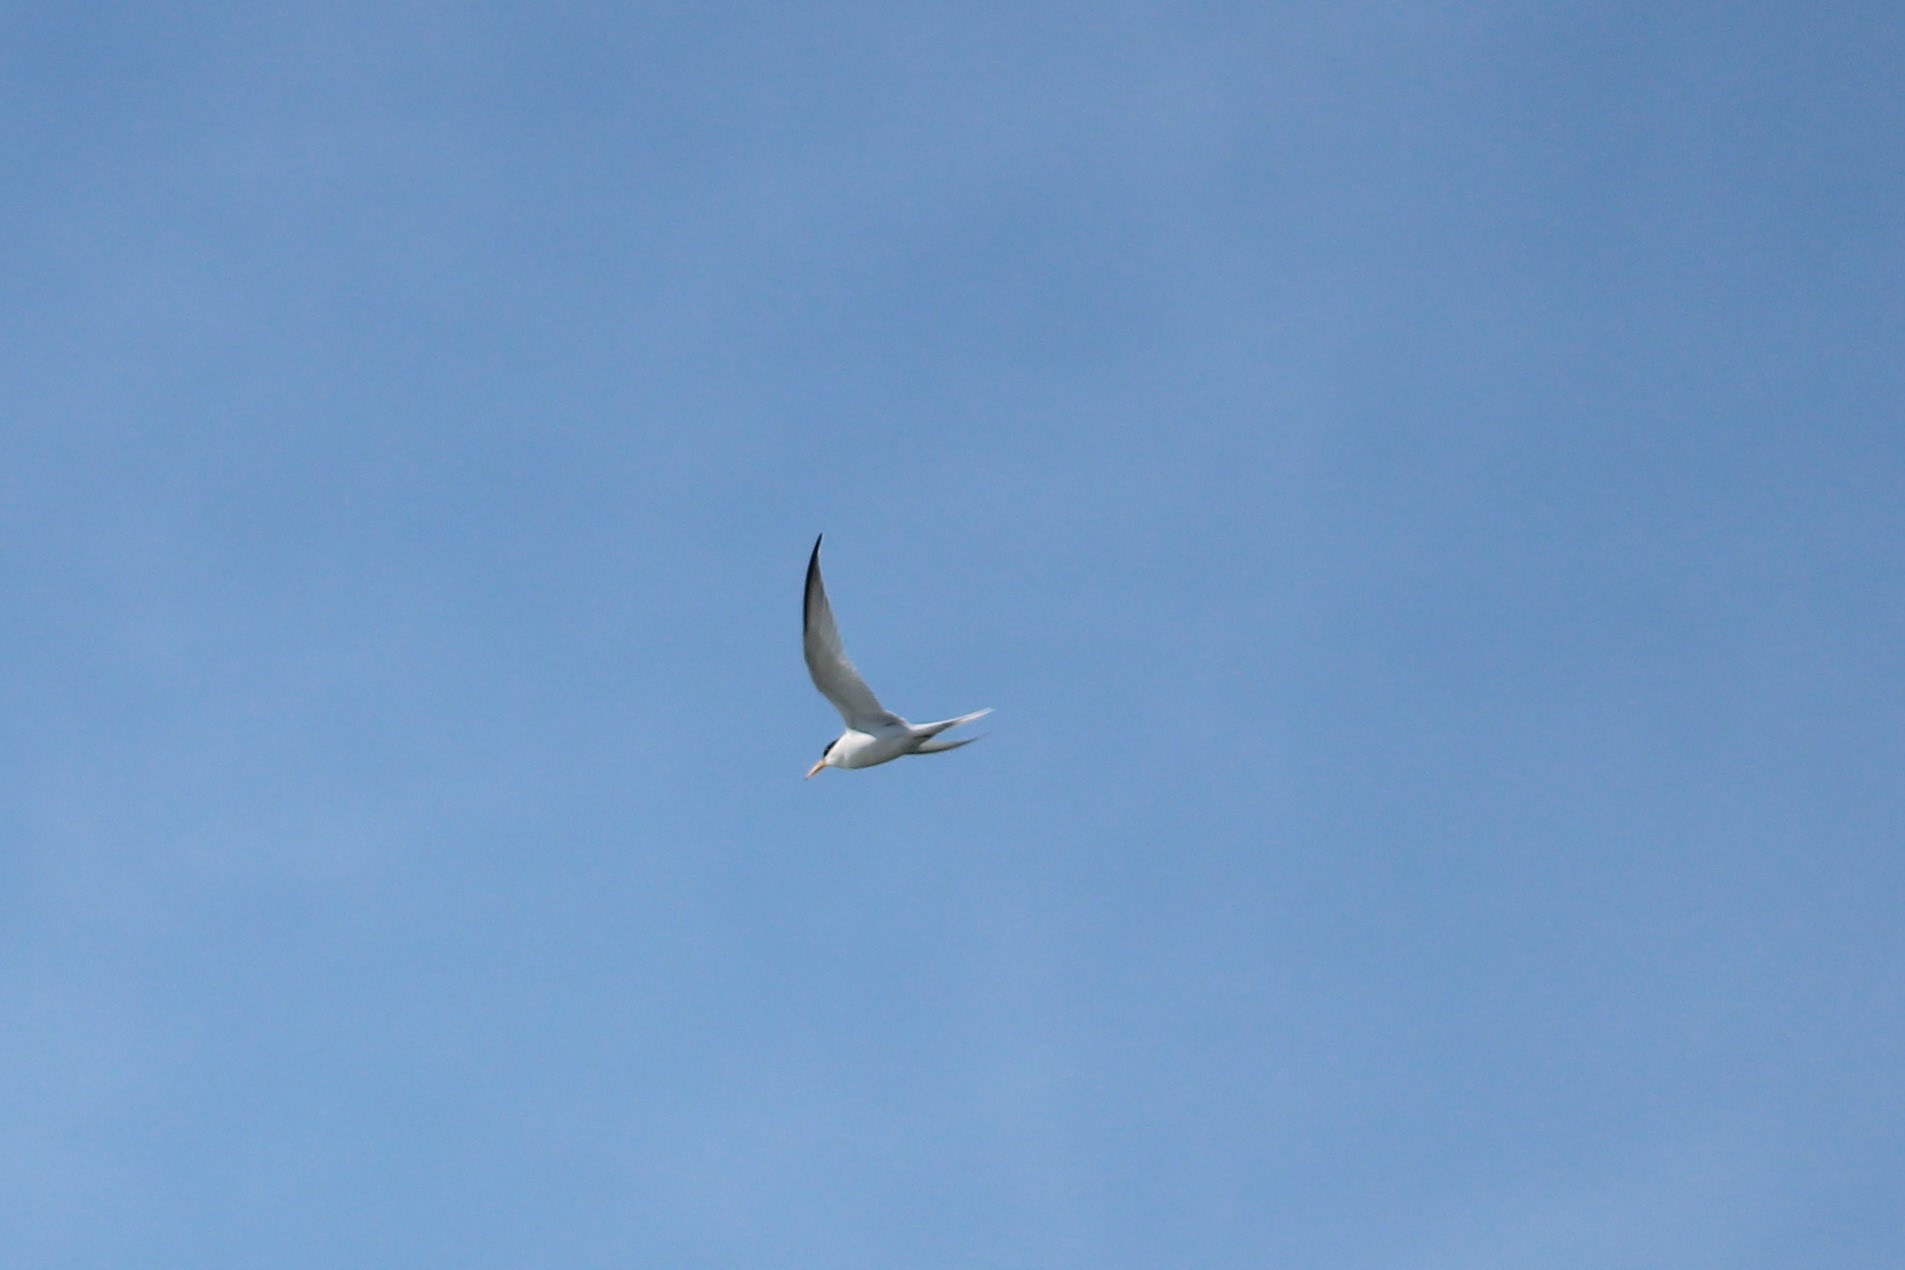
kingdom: Animalia
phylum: Chordata
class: Aves
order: Charadriiformes
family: Laridae
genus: Sternula
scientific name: Sternula antillarum
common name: Least tern
